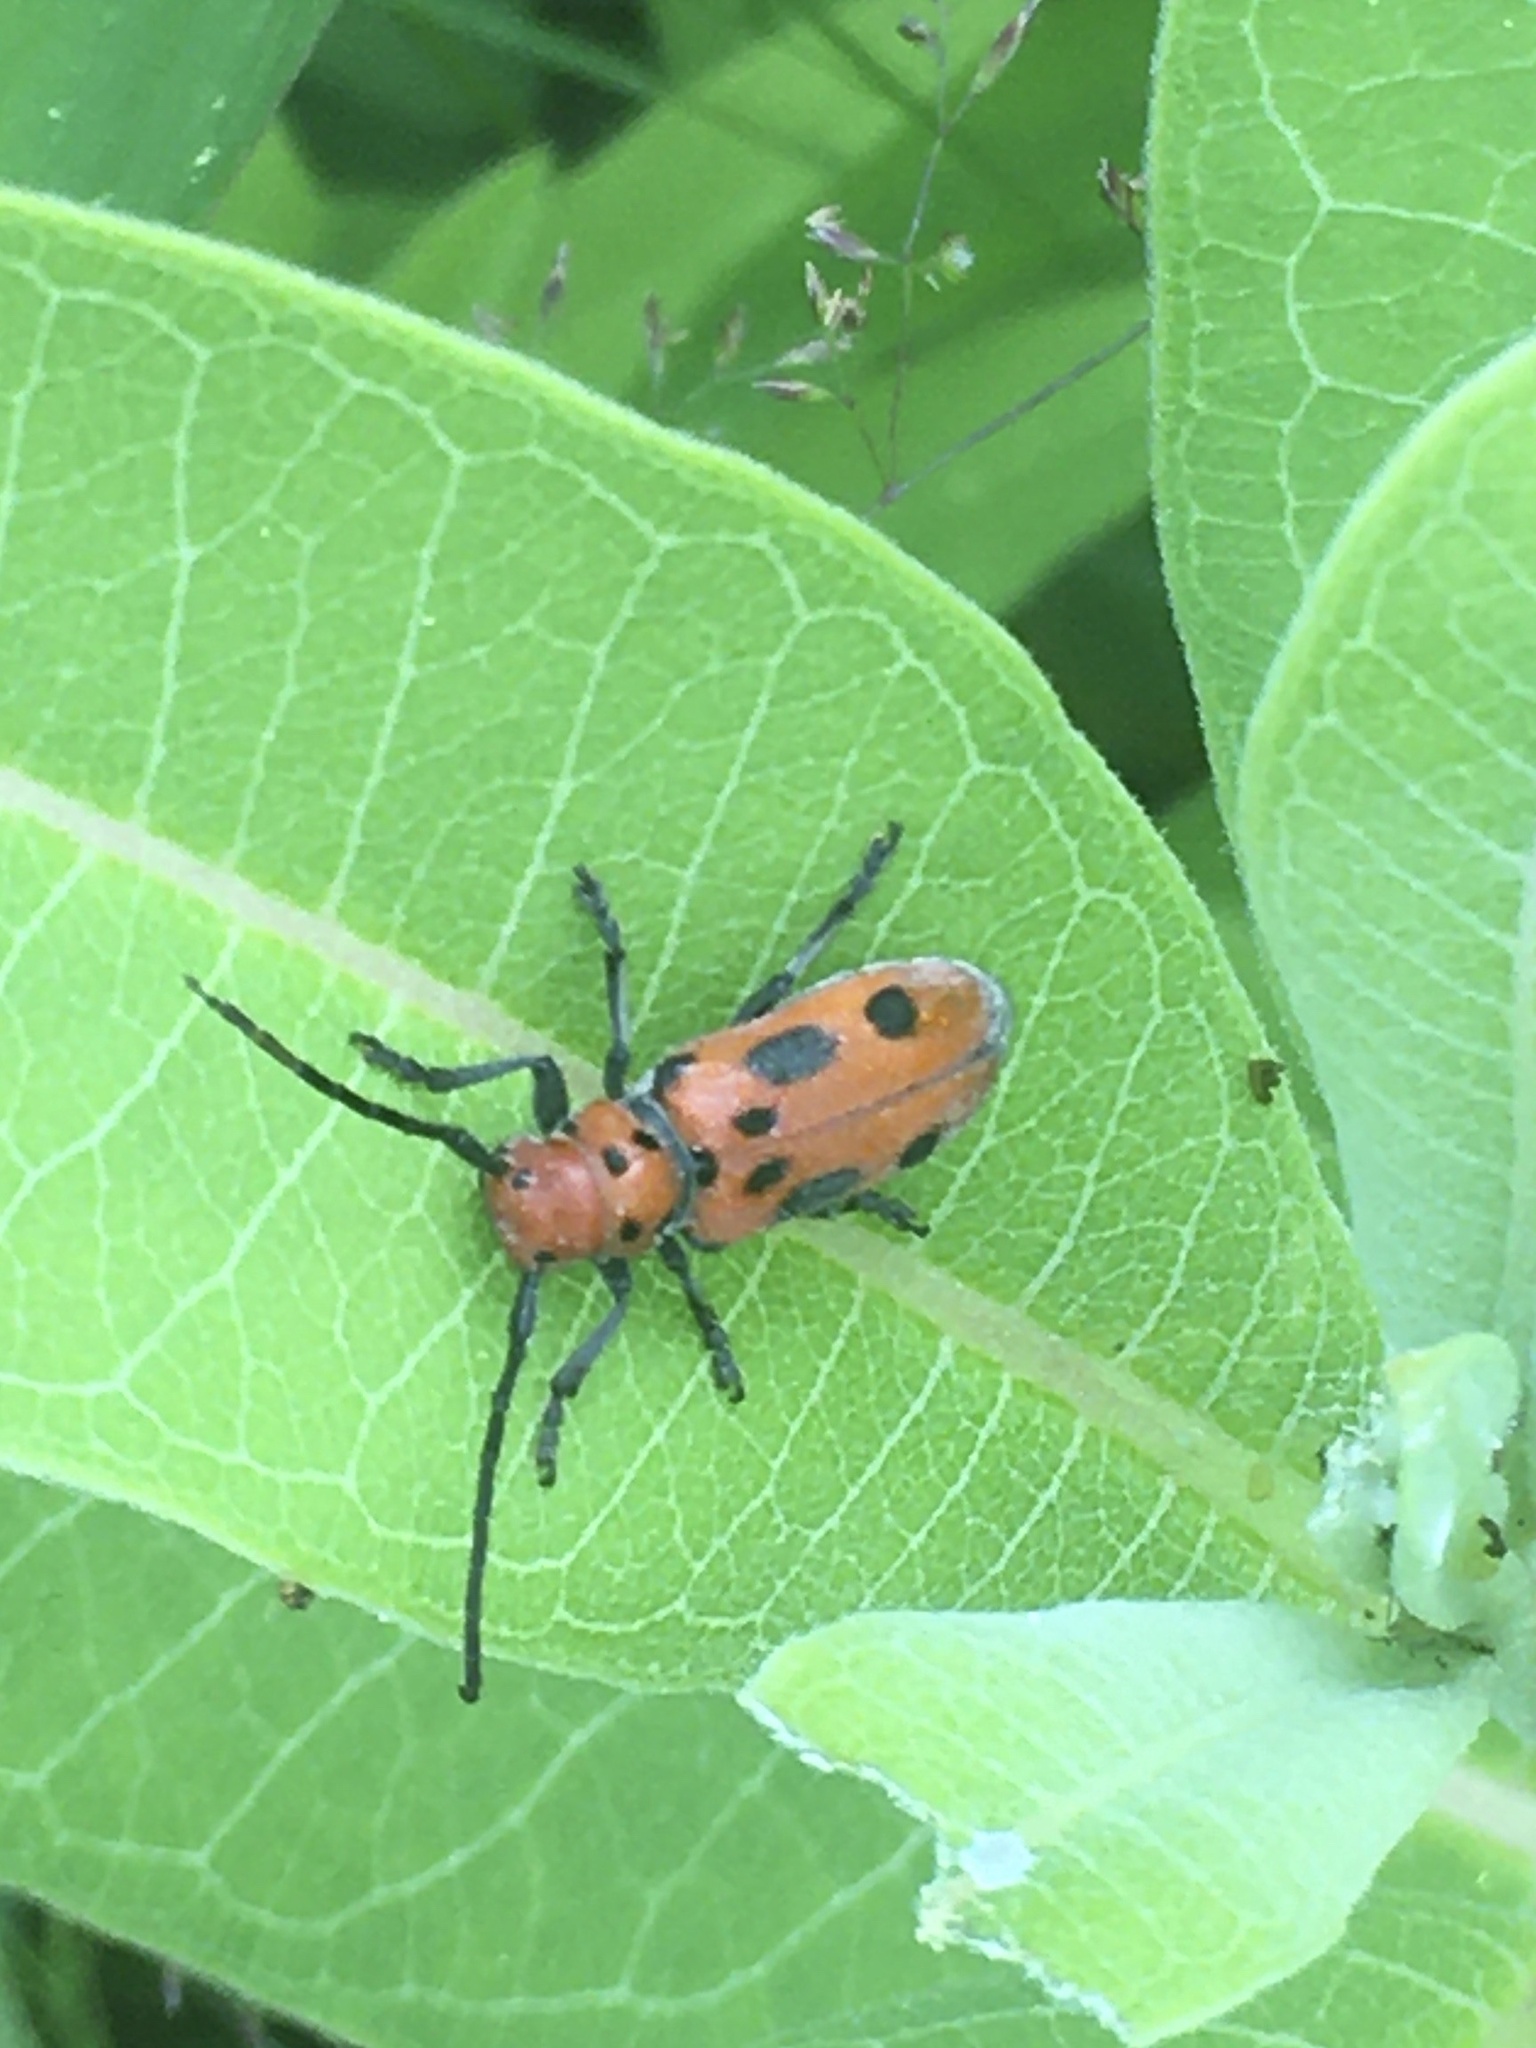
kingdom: Animalia
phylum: Arthropoda
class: Insecta
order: Coleoptera
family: Cerambycidae
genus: Tetraopes
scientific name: Tetraopes tetrophthalmus
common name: Red milkweed beetle
